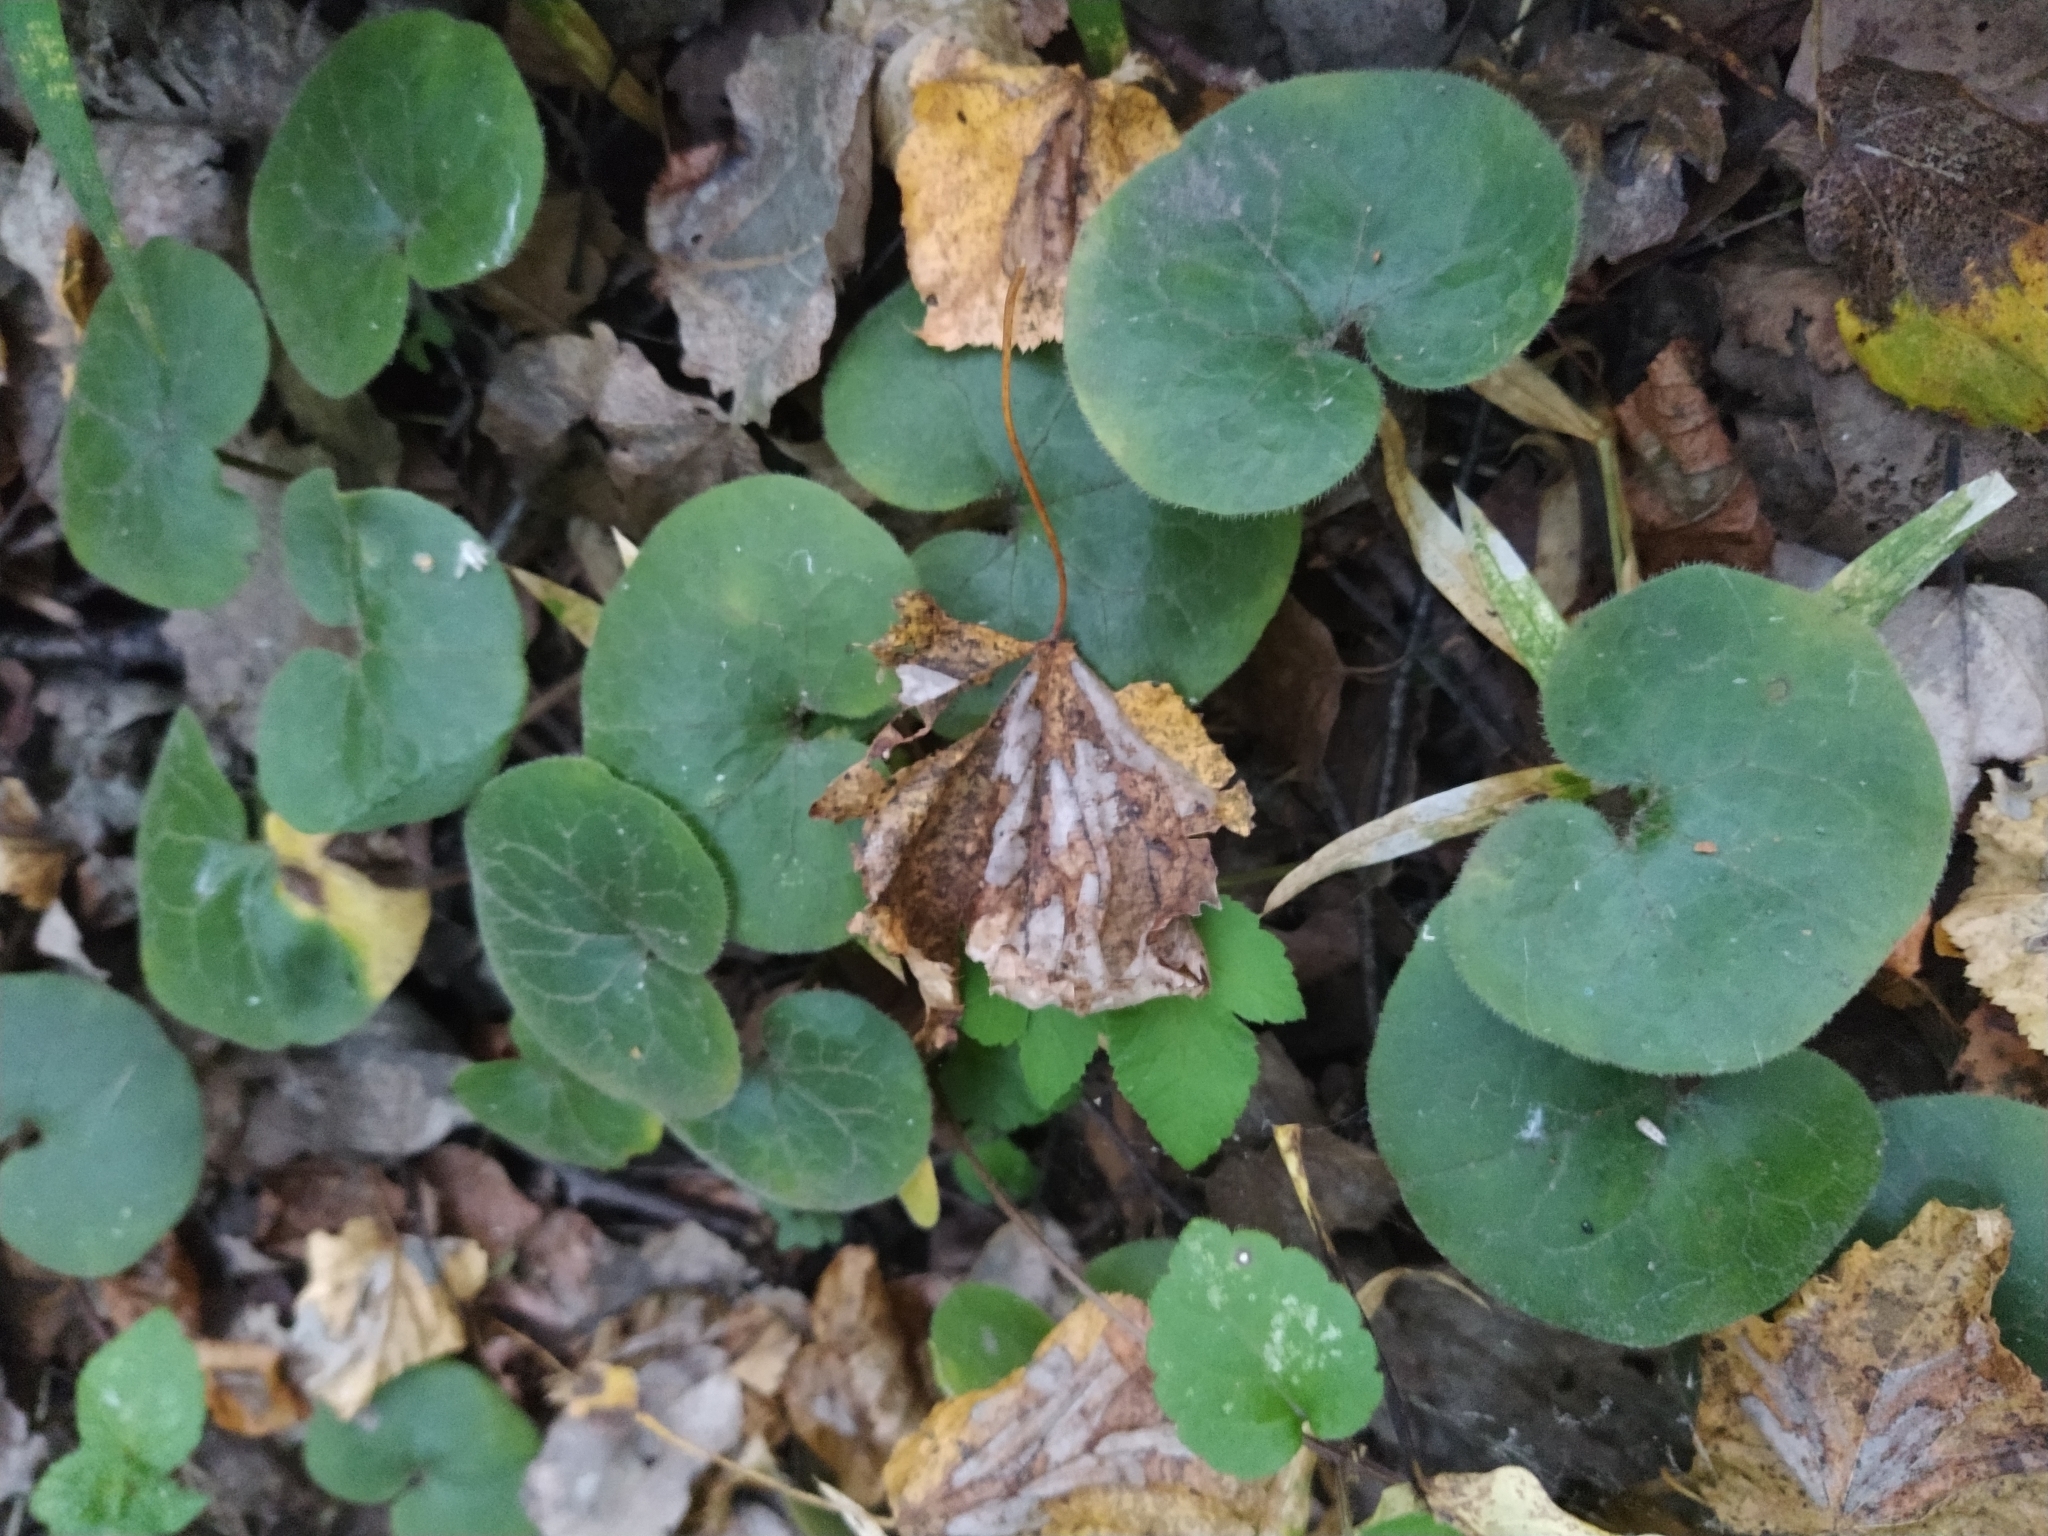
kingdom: Plantae
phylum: Tracheophyta
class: Magnoliopsida
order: Piperales
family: Aristolochiaceae
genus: Asarum
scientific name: Asarum europaeum
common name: Asarabacca
